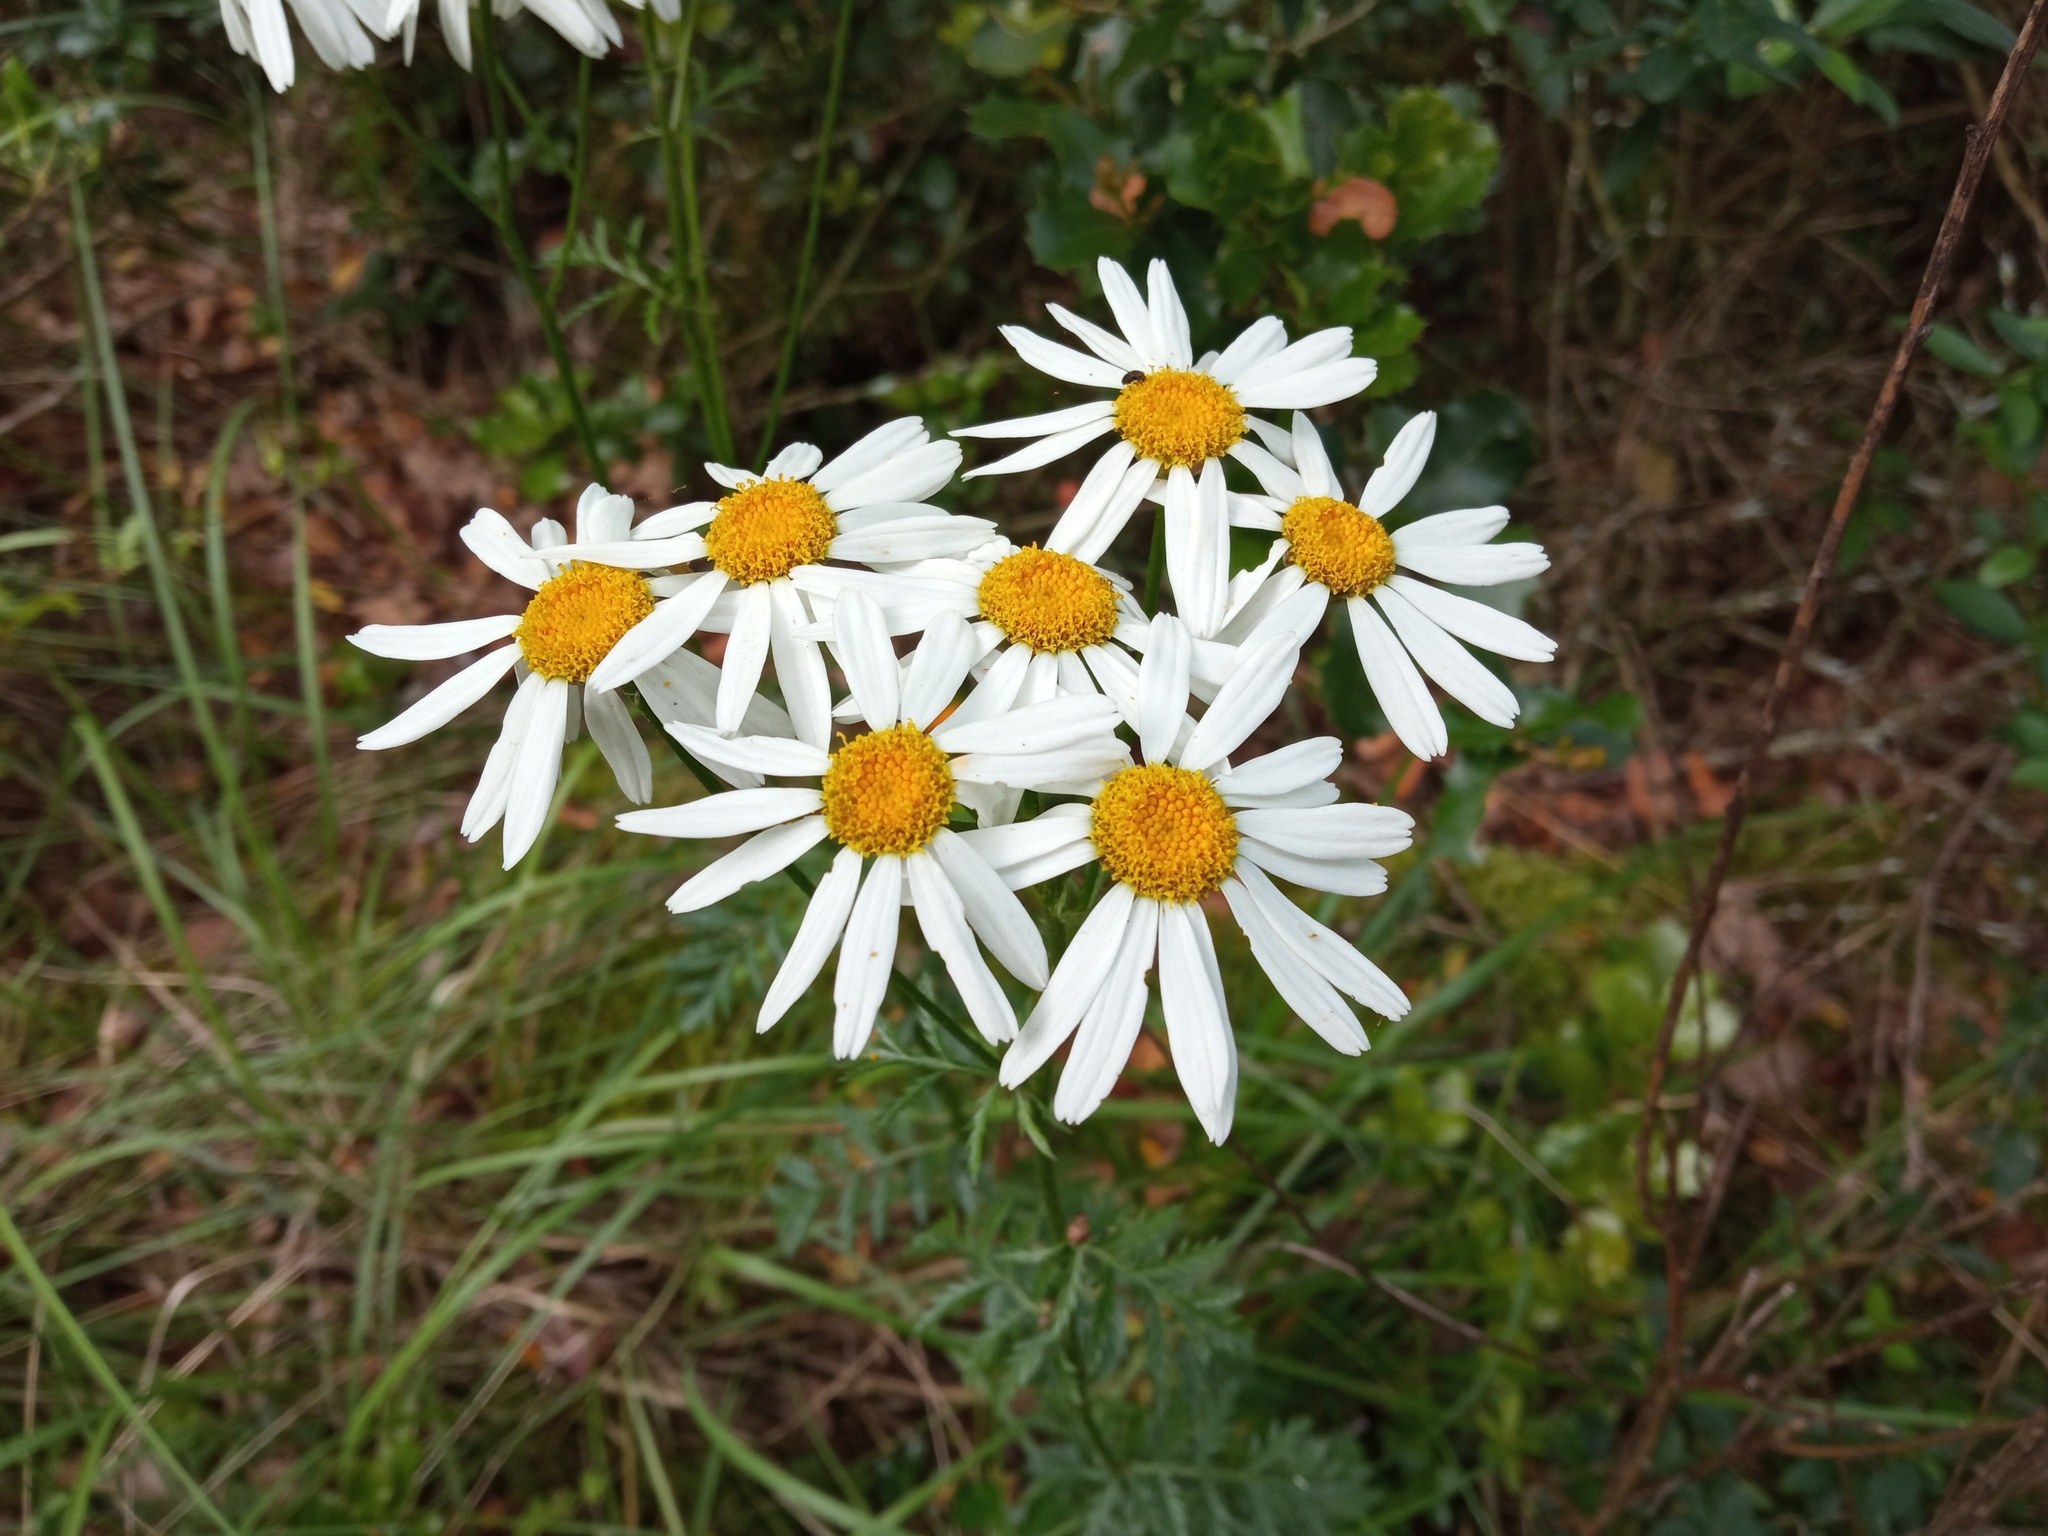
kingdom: Plantae
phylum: Tracheophyta
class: Magnoliopsida
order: Asterales
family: Asteraceae
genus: Tanacetum
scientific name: Tanacetum corymbosum
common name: Scentless feverfew
